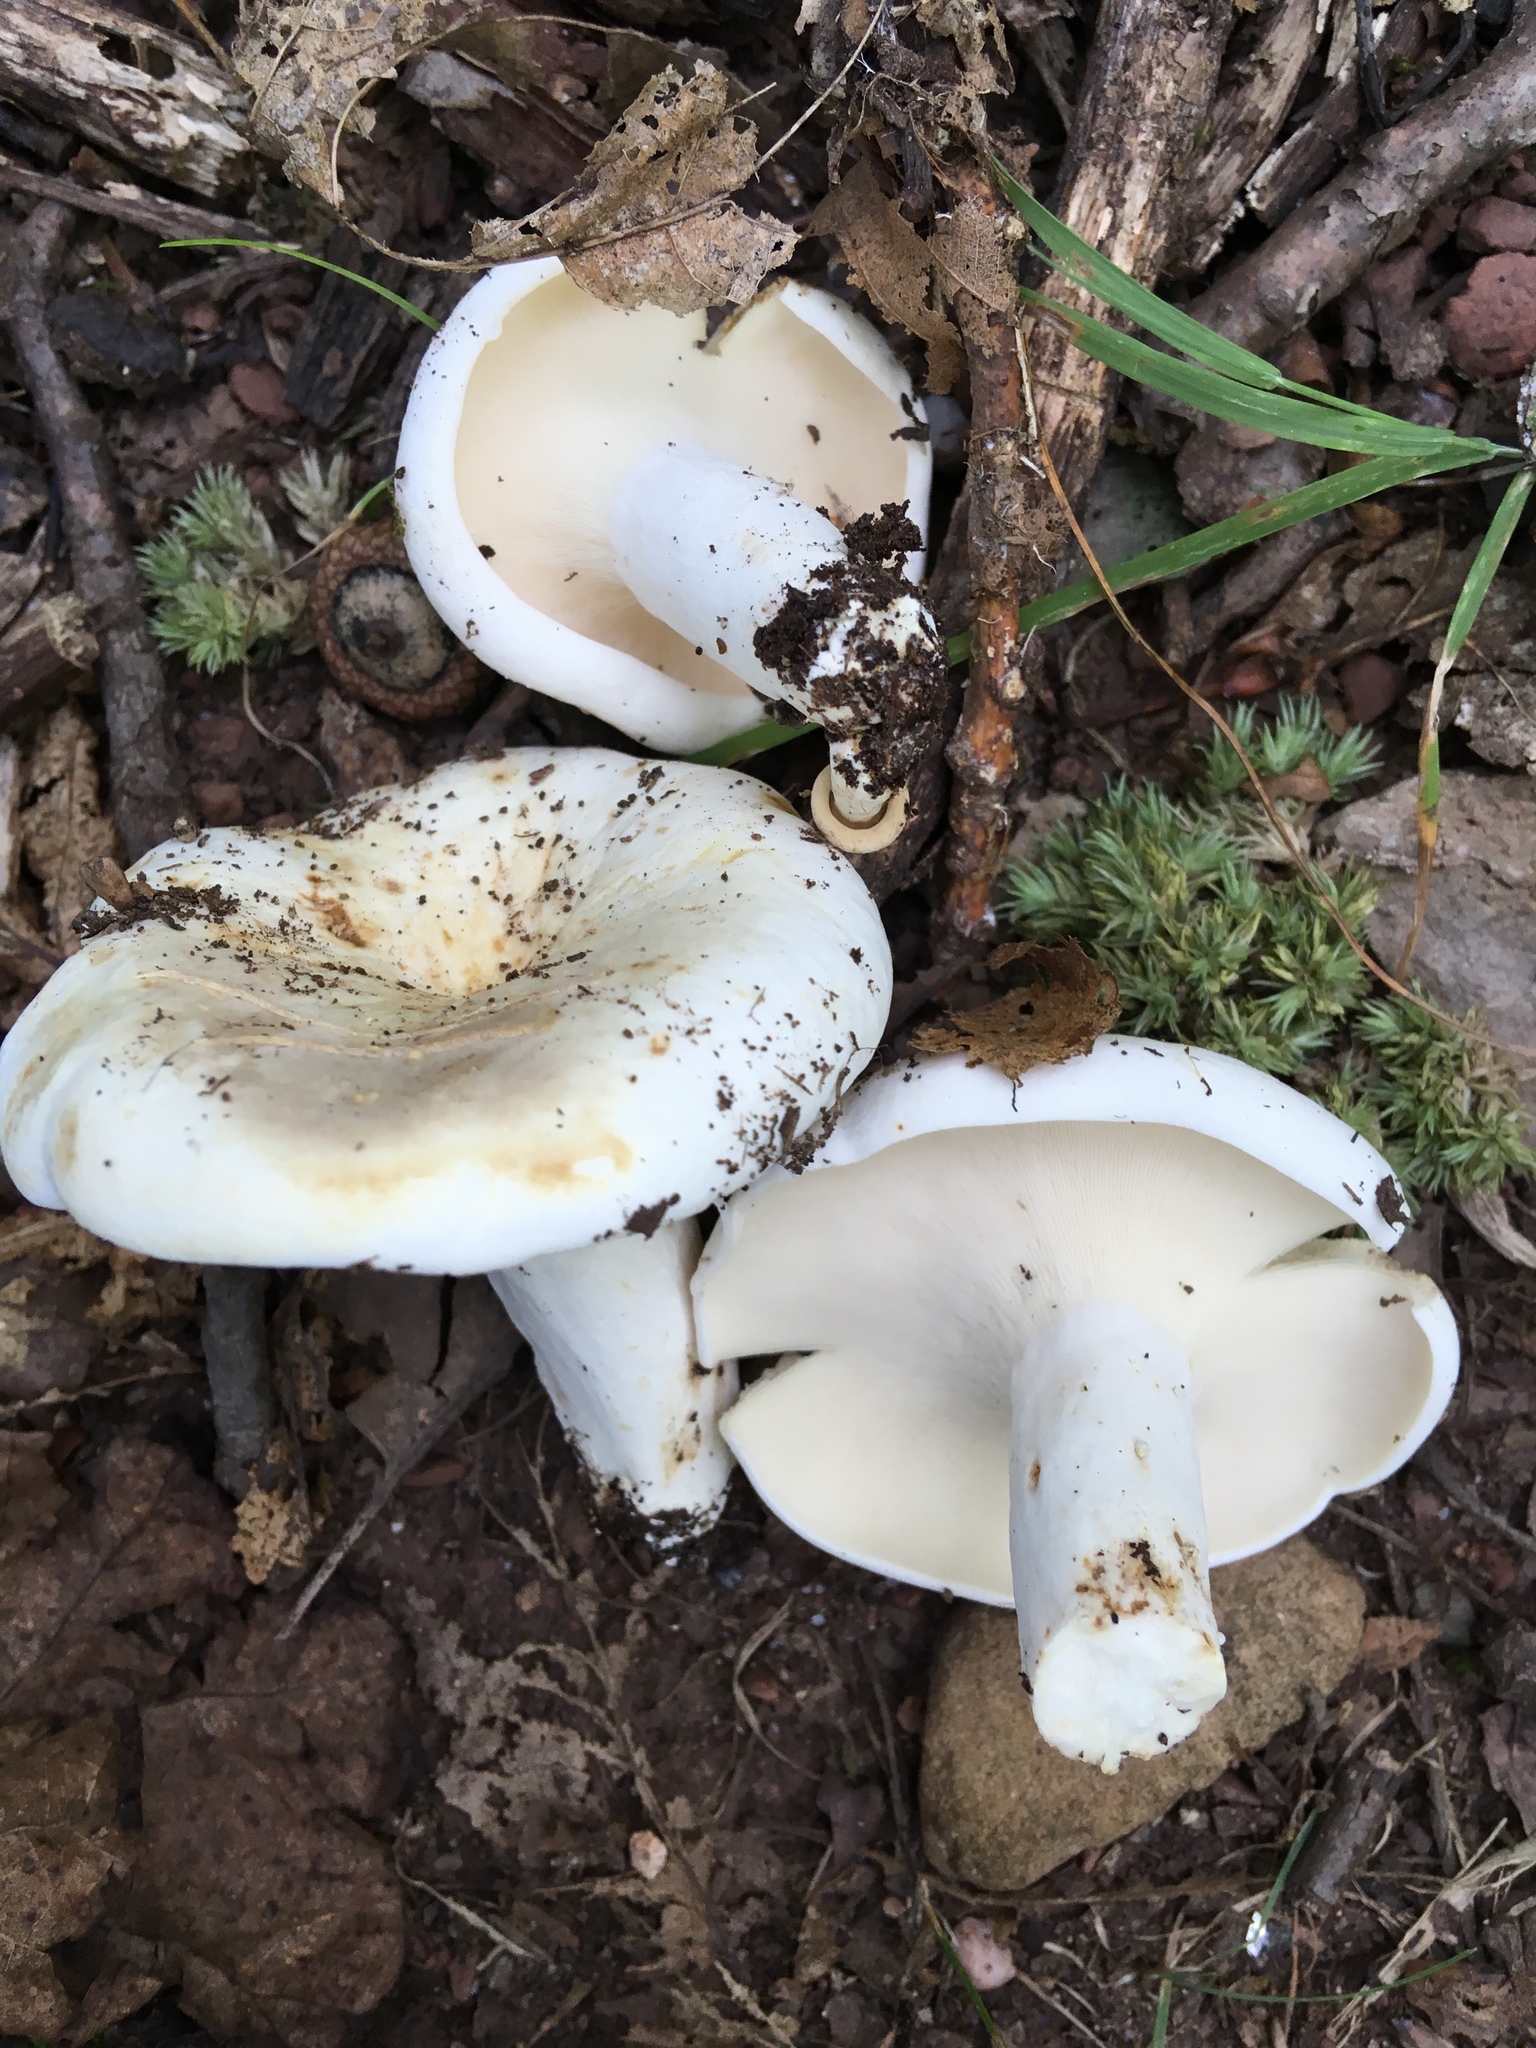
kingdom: Fungi
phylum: Basidiomycota
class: Agaricomycetes
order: Russulales
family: Russulaceae
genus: Lactifluus
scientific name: Lactifluus piperatus
